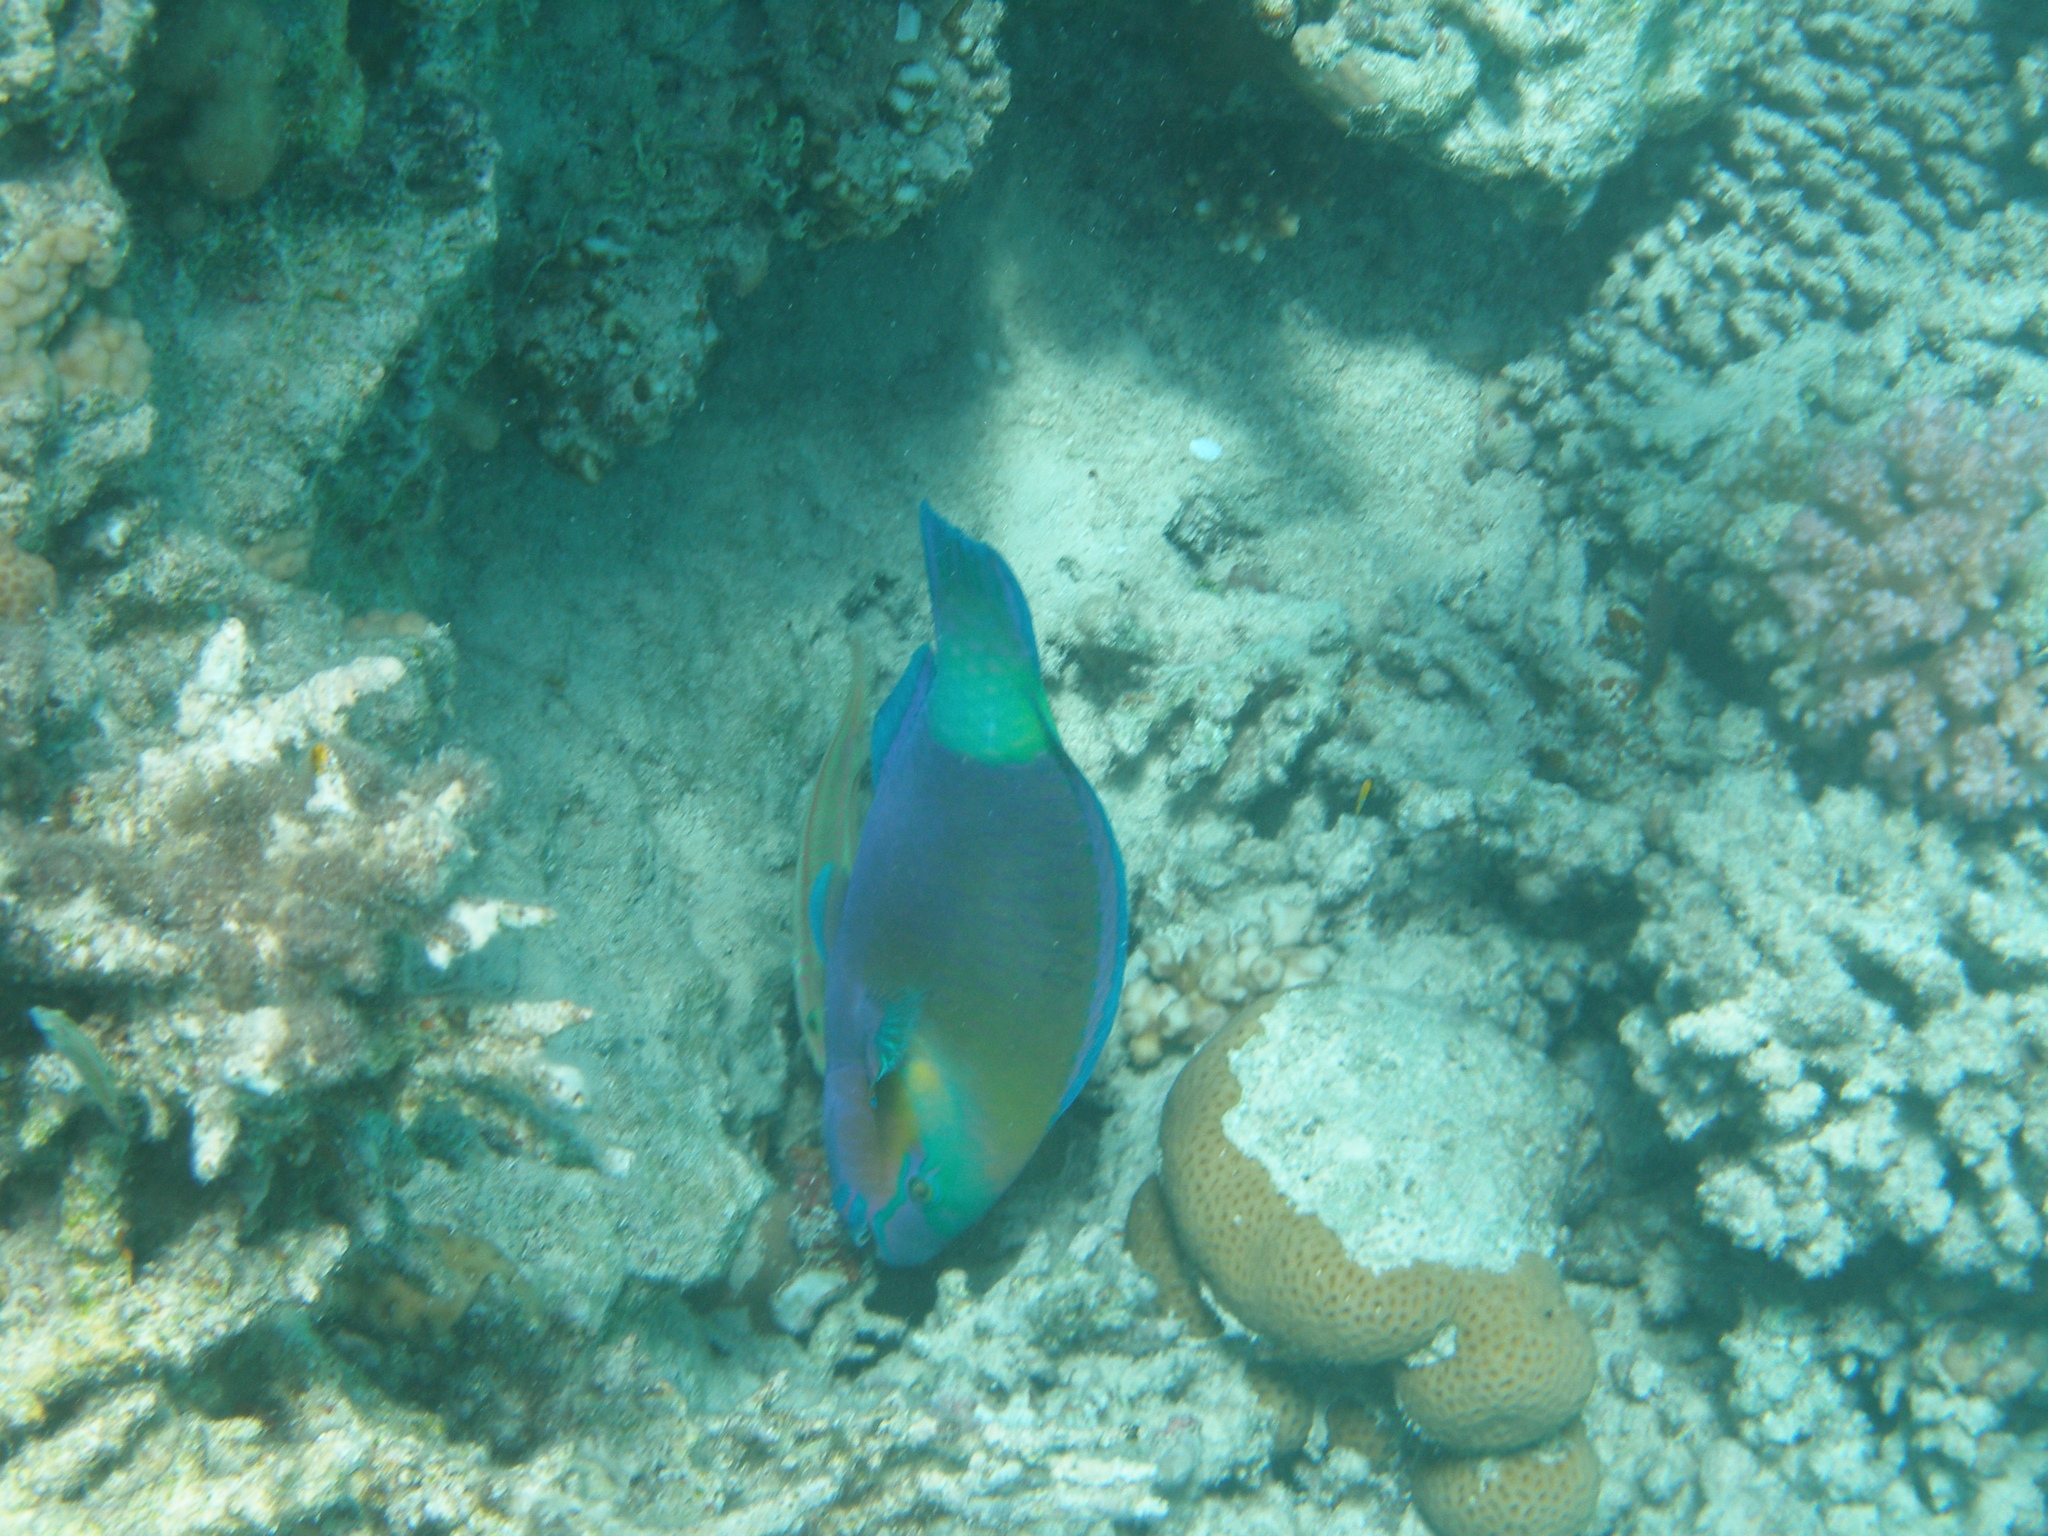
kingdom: Animalia
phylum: Chordata
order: Perciformes
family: Scaridae
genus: Chlorurus
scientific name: Chlorurus sordidus
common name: Bullethead parrotfish
